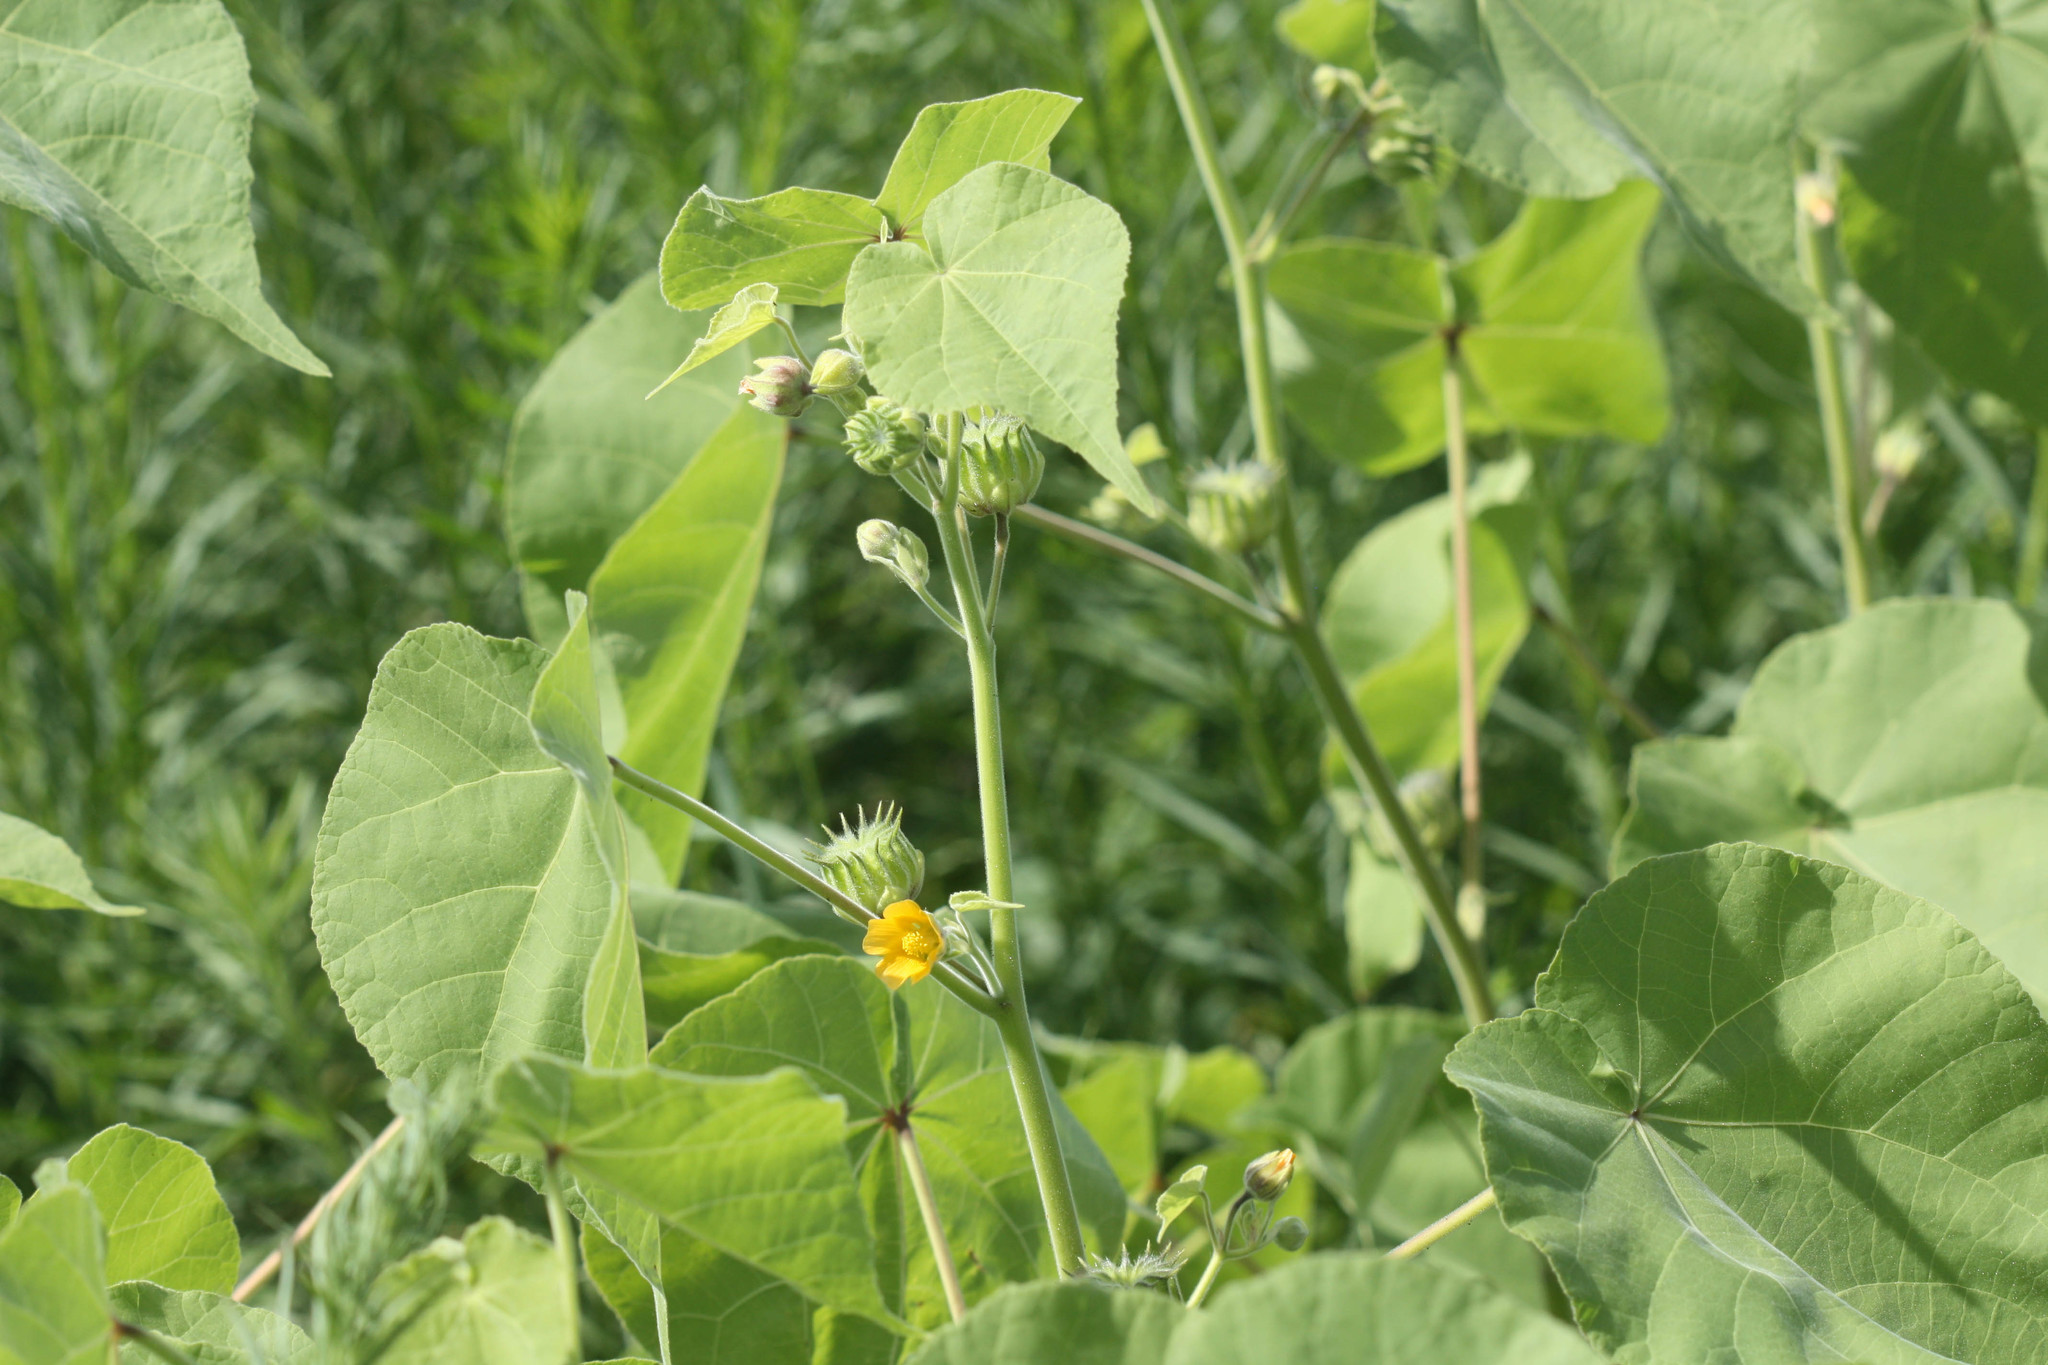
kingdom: Plantae
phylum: Tracheophyta
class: Magnoliopsida
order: Malvales
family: Malvaceae
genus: Abutilon
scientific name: Abutilon theophrasti
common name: Velvetleaf
